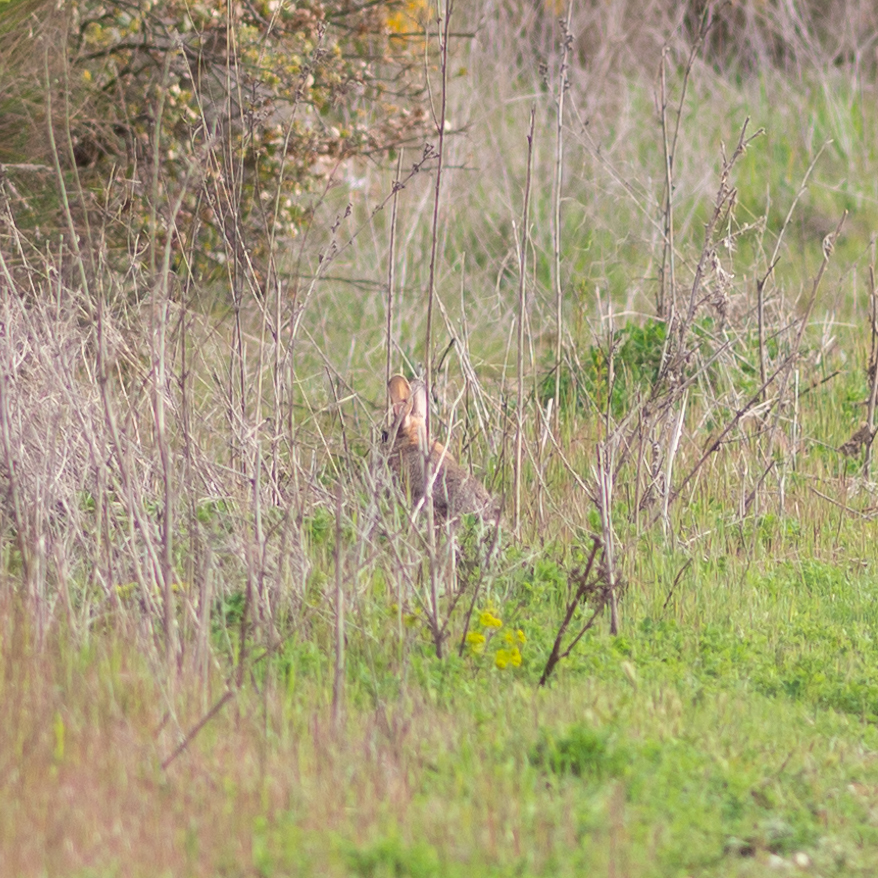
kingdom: Animalia
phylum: Chordata
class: Mammalia
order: Lagomorpha
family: Leporidae
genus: Oryctolagus
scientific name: Oryctolagus cuniculus
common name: European rabbit
